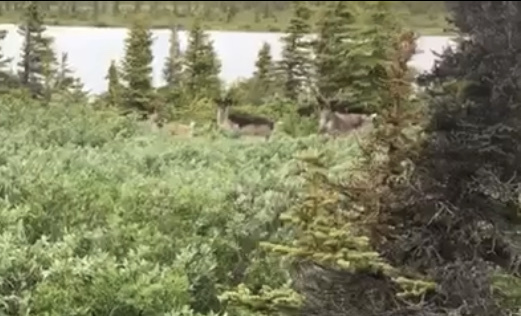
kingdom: Animalia
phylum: Chordata
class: Mammalia
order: Artiodactyla
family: Cervidae
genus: Rangifer
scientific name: Rangifer tarandus
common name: Reindeer
